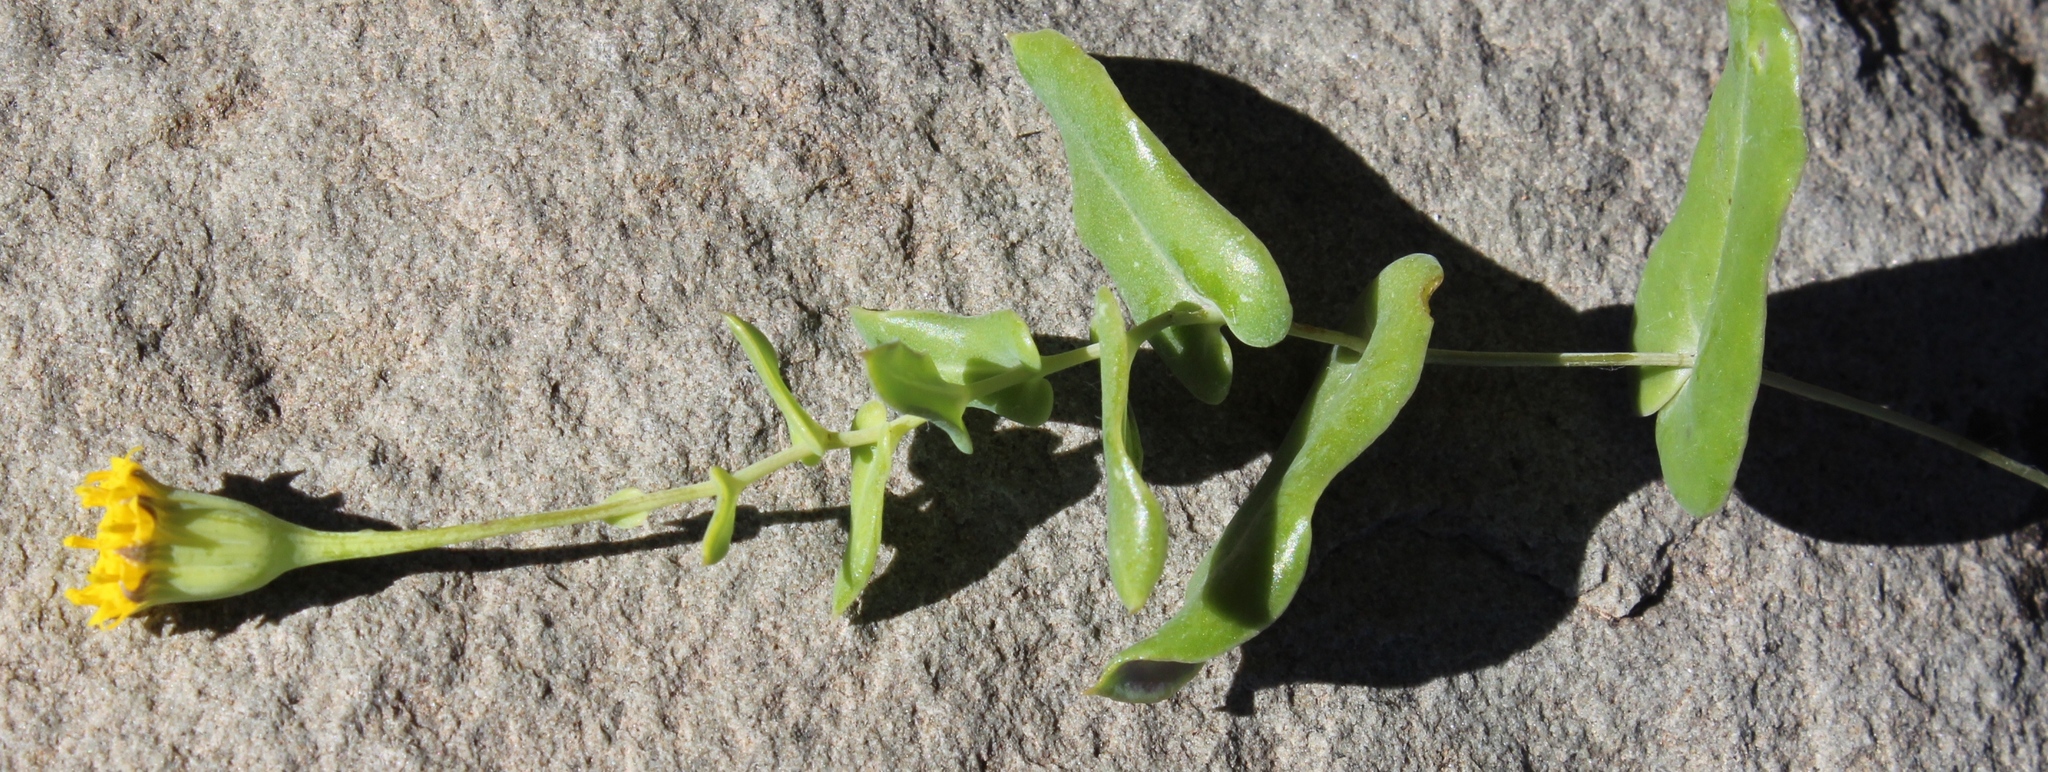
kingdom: Plantae
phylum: Tracheophyta
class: Magnoliopsida
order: Asterales
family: Asteraceae
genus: Othonna
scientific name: Othonna undulosa
